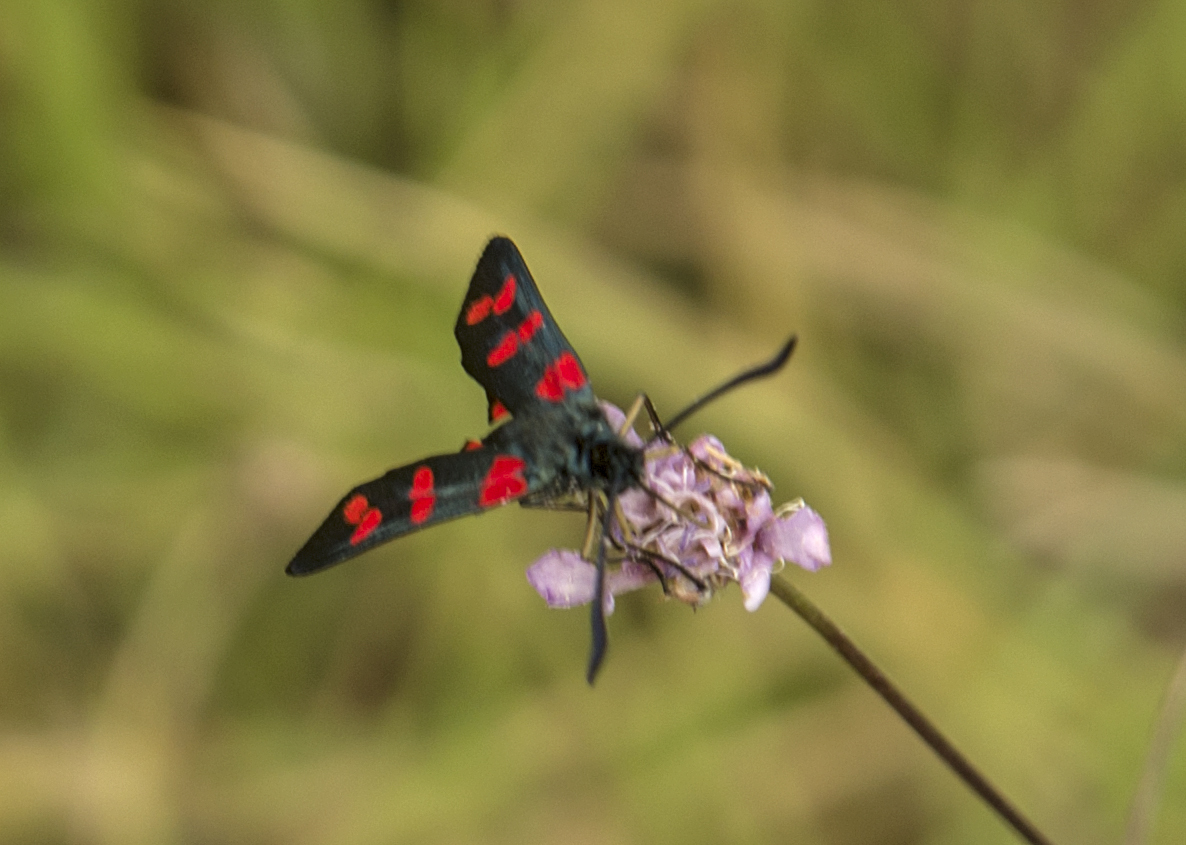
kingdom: Animalia
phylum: Arthropoda
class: Insecta
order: Lepidoptera
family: Zygaenidae
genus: Zygaena
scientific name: Zygaena filipendulae
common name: Six-spot burnet
